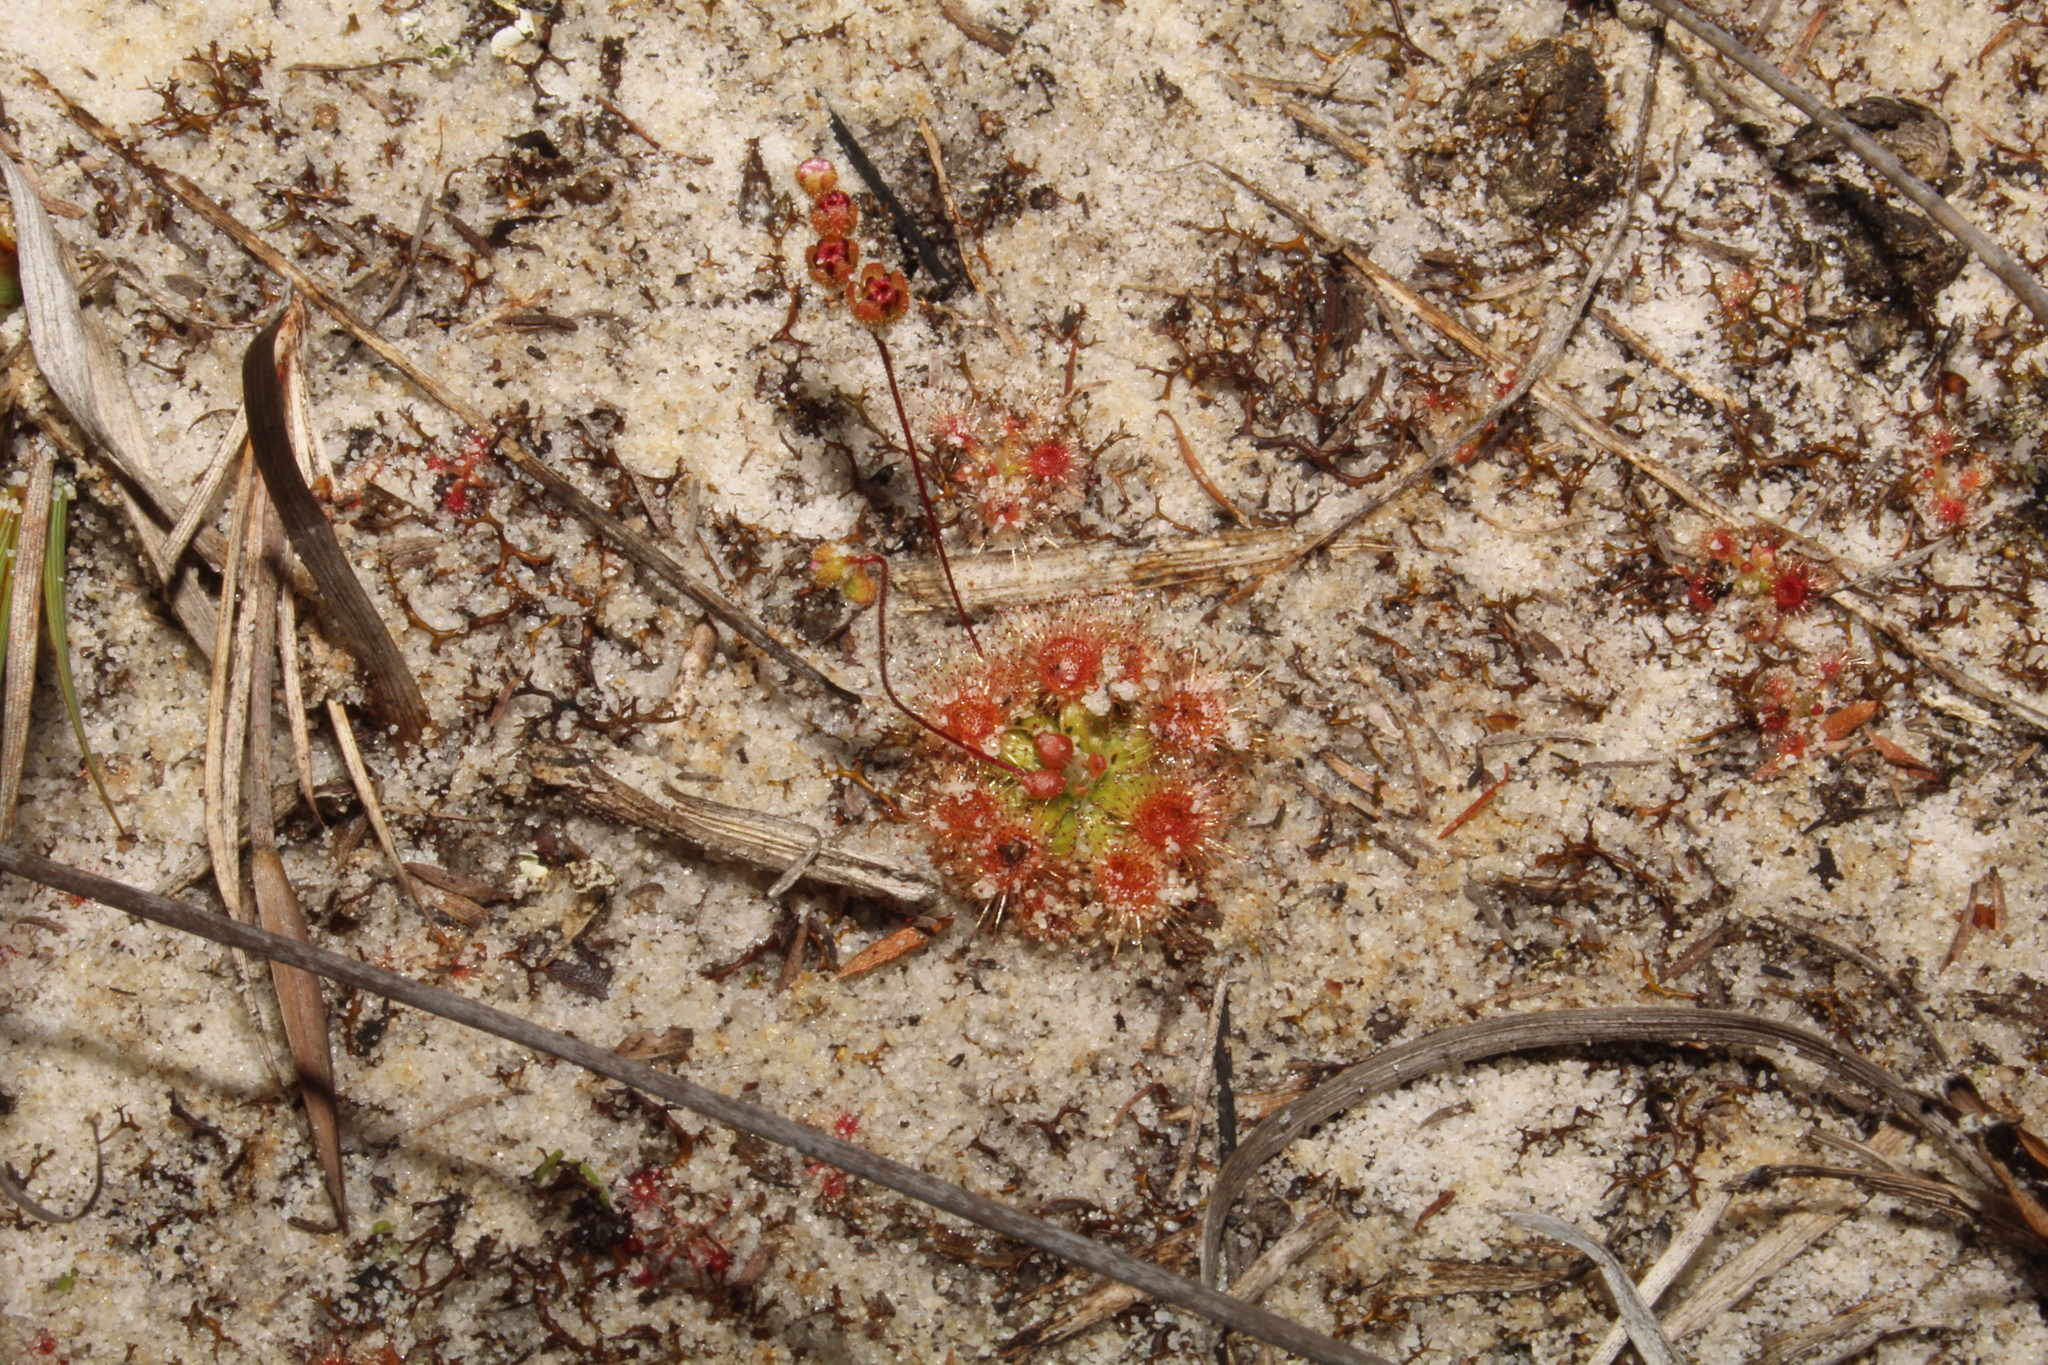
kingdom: Plantae
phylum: Tracheophyta
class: Magnoliopsida
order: Caryophyllales
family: Droseraceae
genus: Drosera
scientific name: Drosera pulchella
